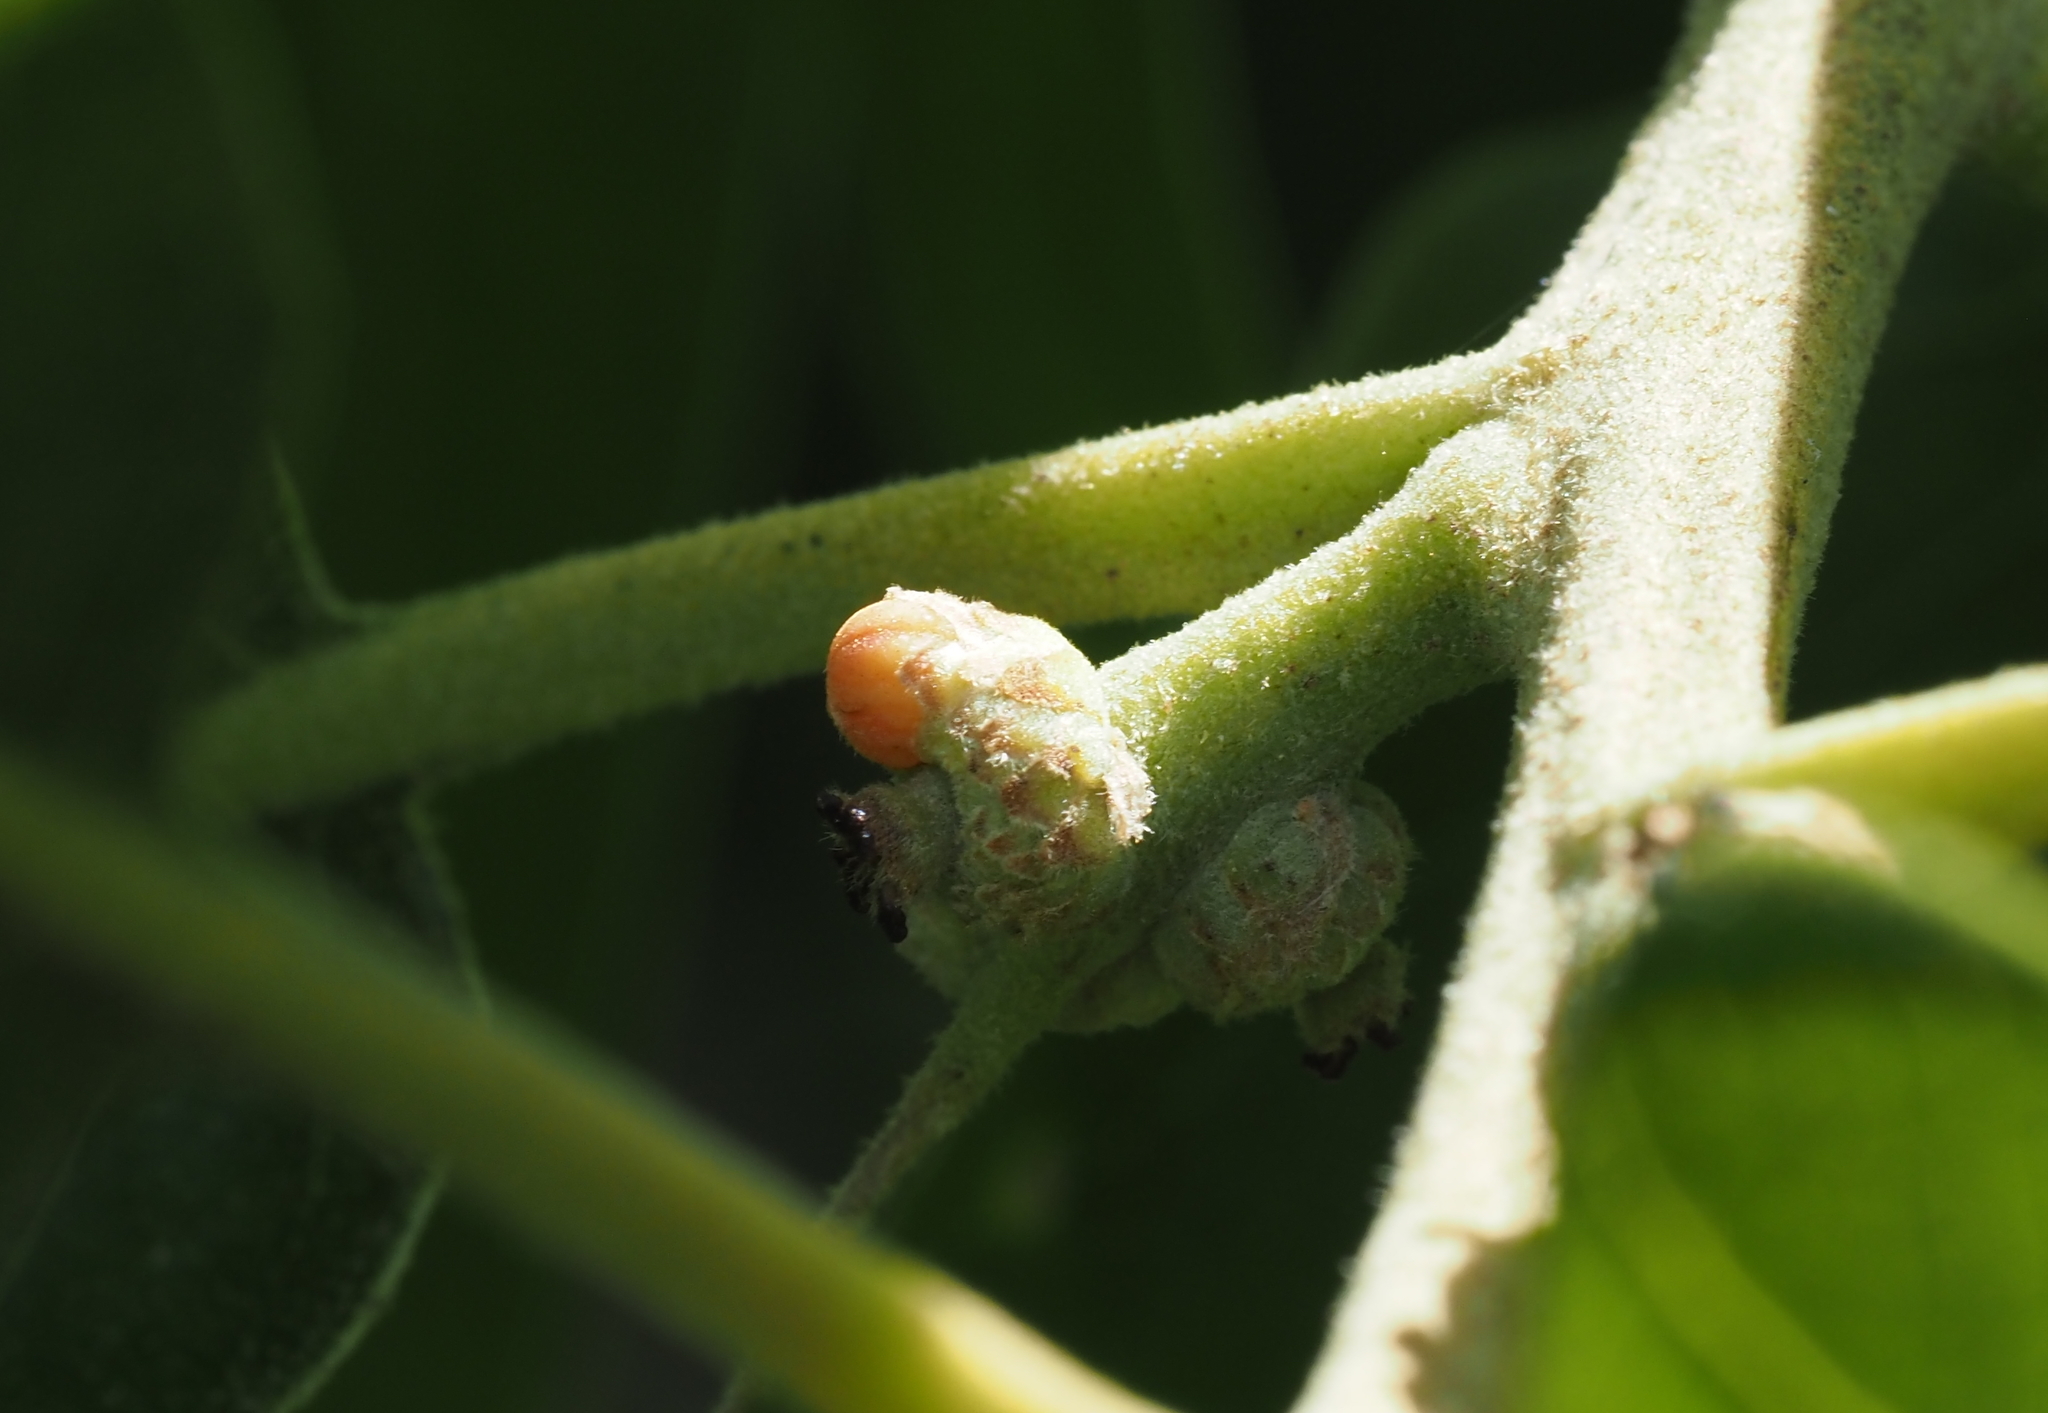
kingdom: Animalia
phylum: Arthropoda
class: Insecta
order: Hymenoptera
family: Cynipidae
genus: Callirhytis
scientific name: Callirhytis
